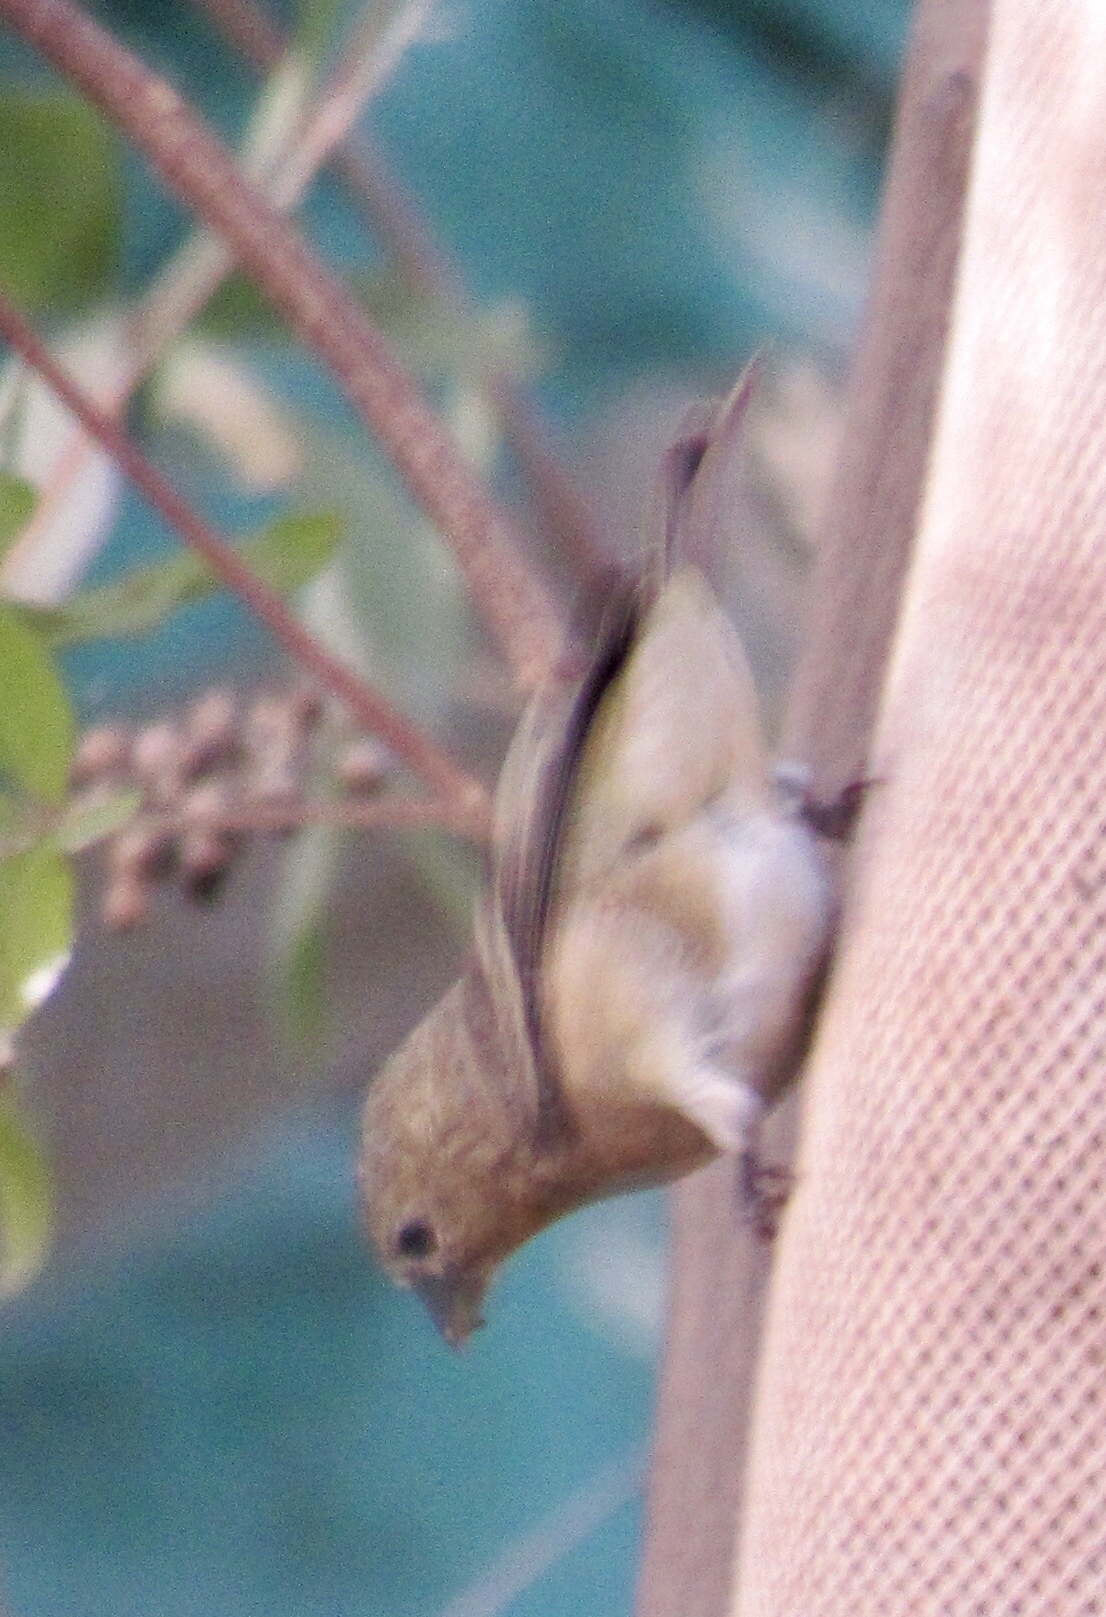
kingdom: Animalia
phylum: Chordata
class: Aves
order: Passeriformes
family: Fringillidae
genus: Spinus
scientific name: Spinus psaltria
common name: Lesser goldfinch
